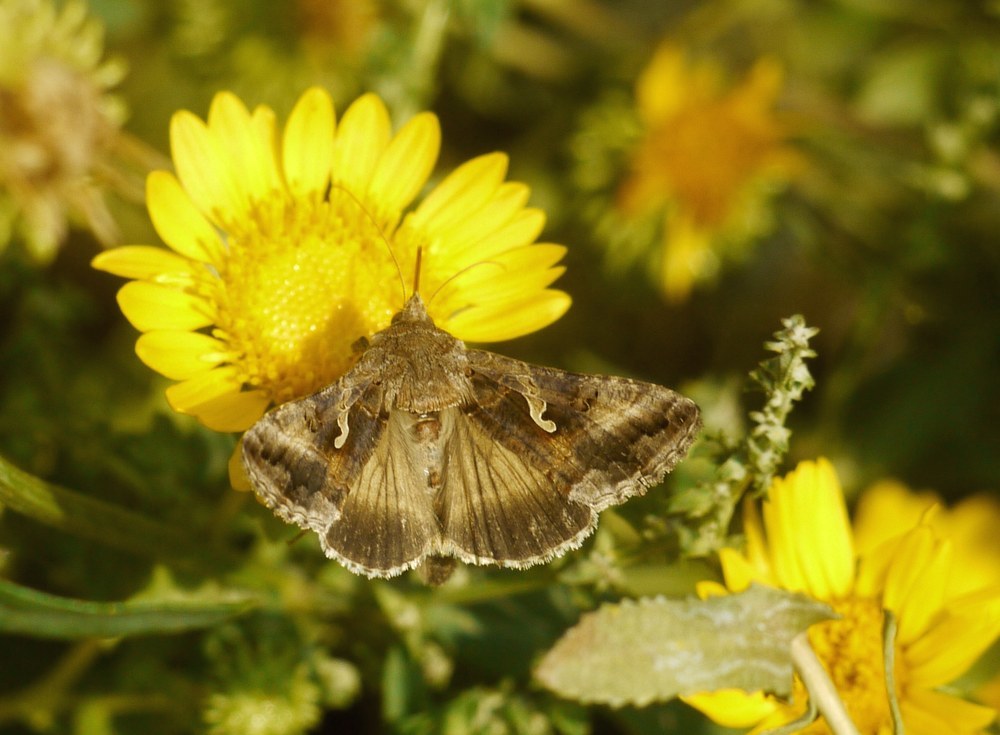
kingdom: Animalia
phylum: Arthropoda
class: Insecta
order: Lepidoptera
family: Noctuidae
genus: Autographa
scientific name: Autographa gamma
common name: Silver y
